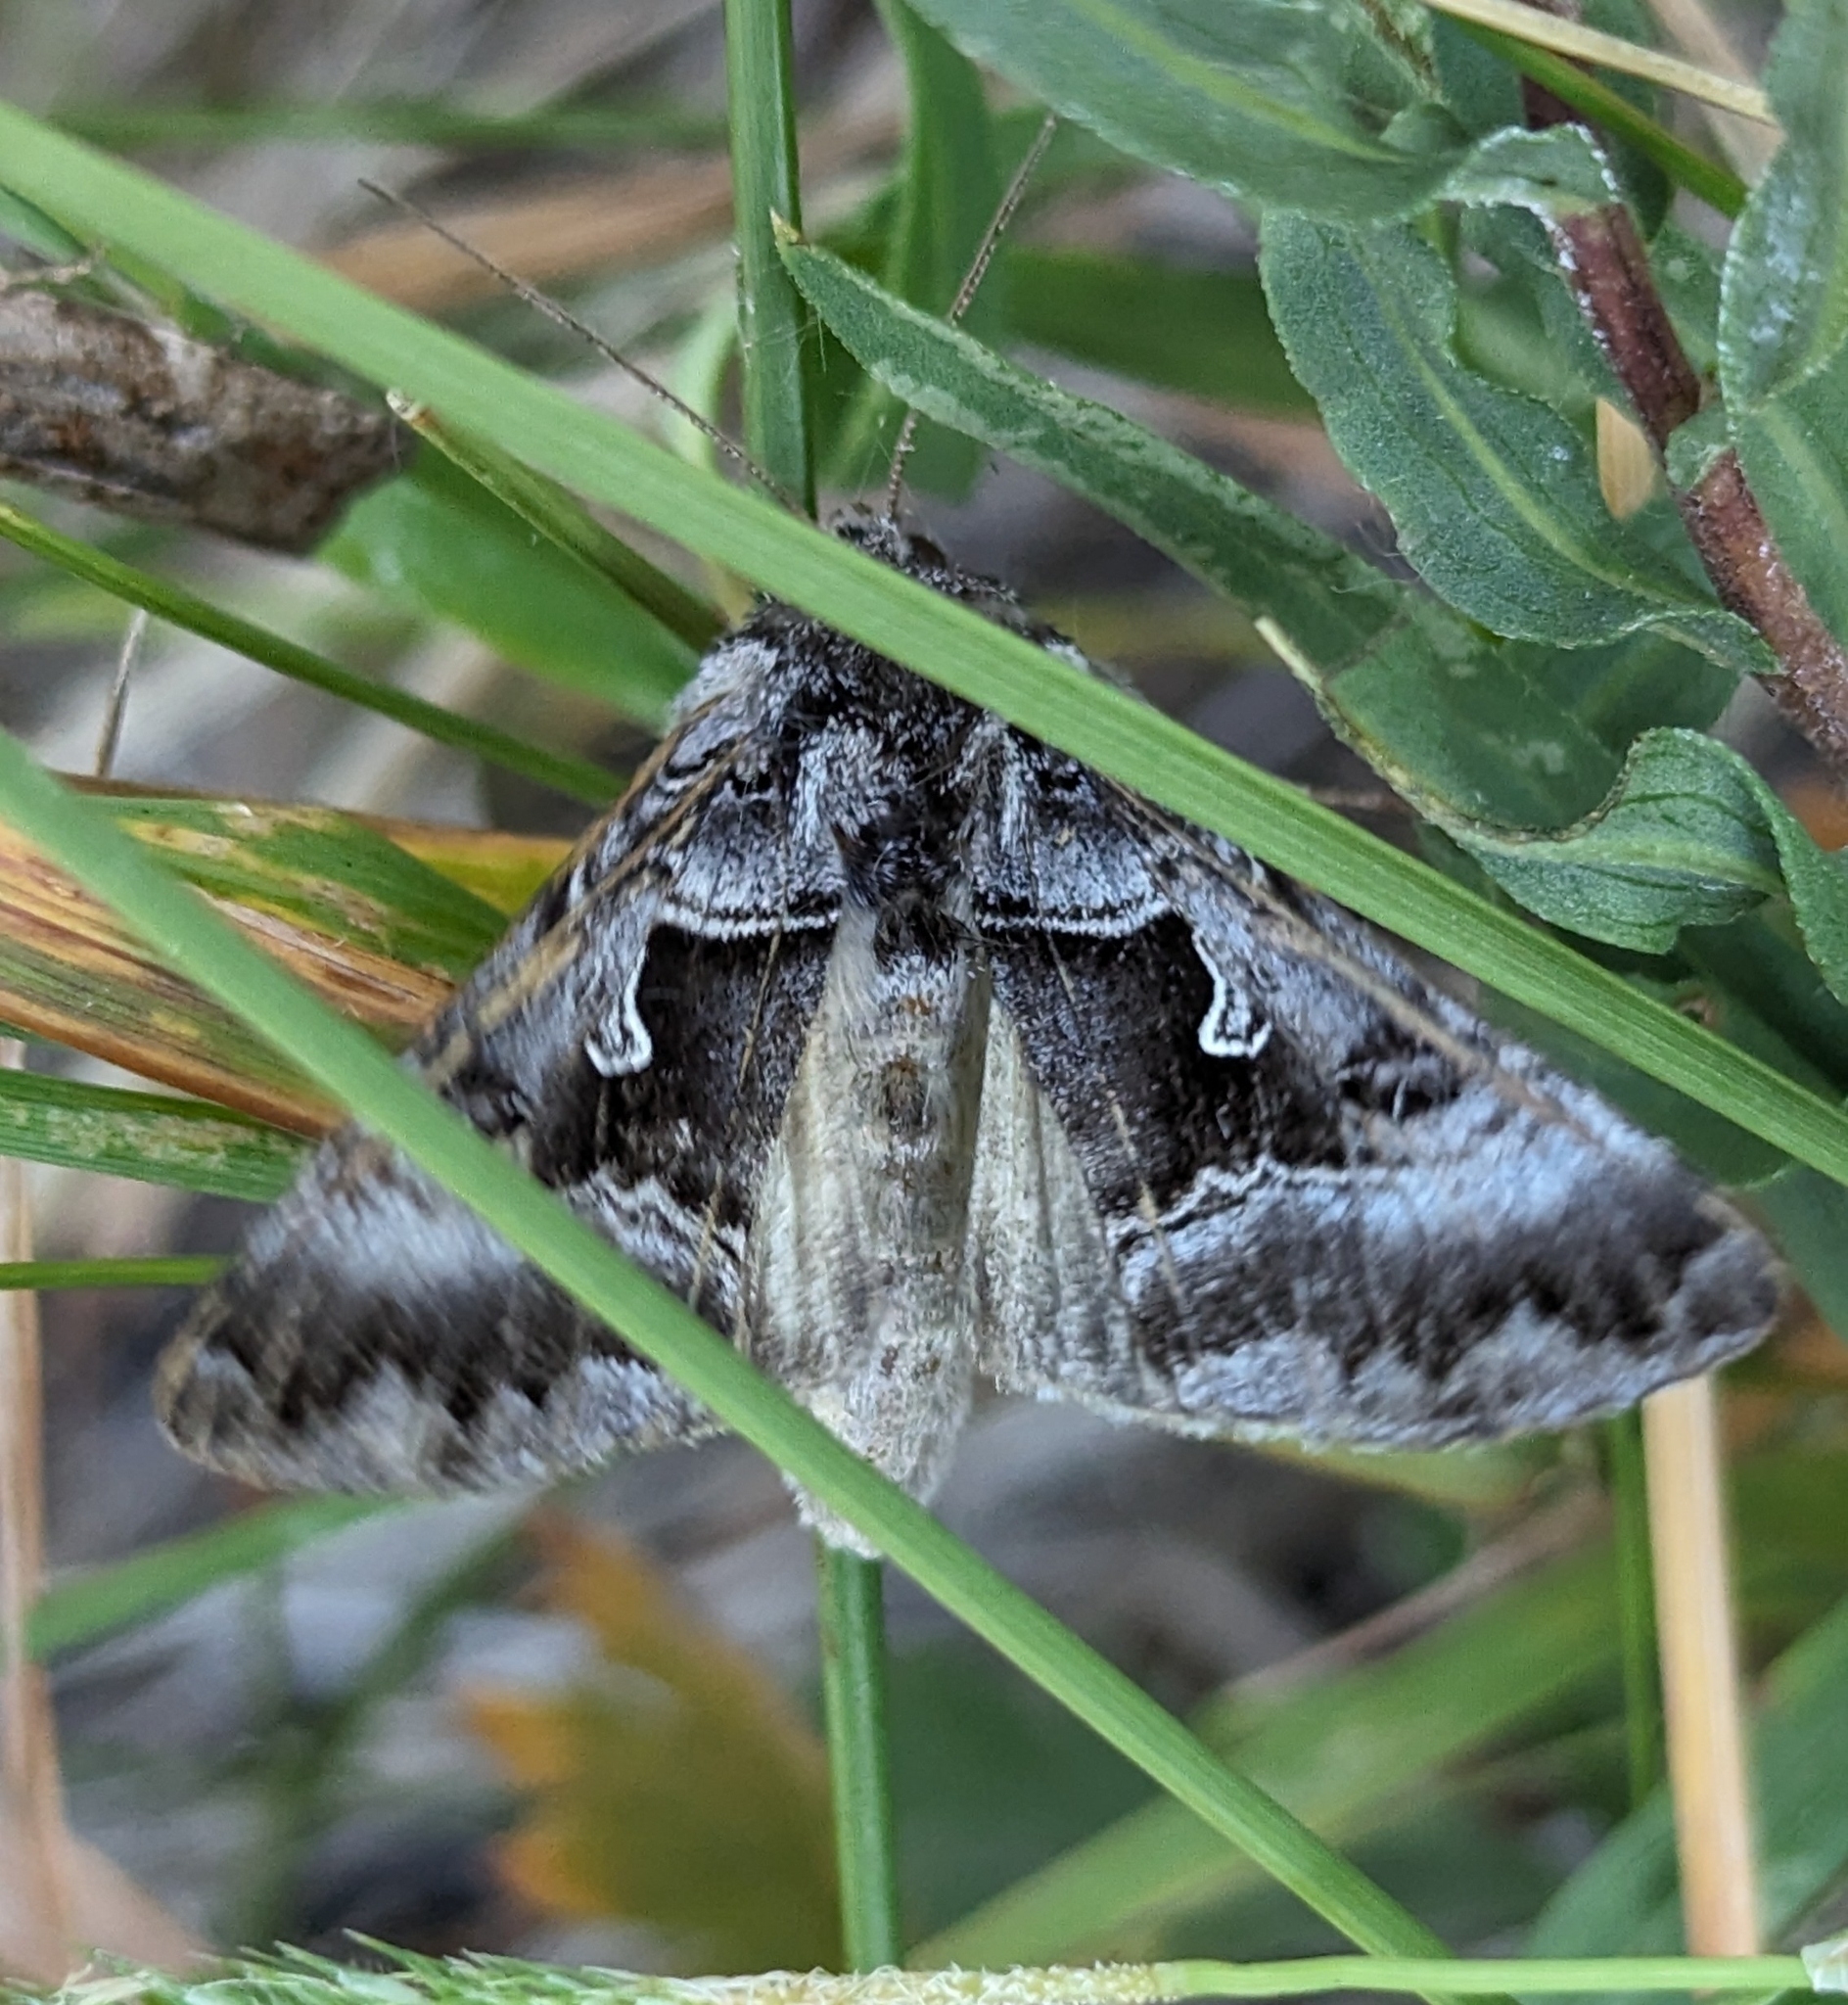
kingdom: Animalia
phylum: Arthropoda
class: Insecta
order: Lepidoptera
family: Noctuidae
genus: Autographa
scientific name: Autographa v-alba
